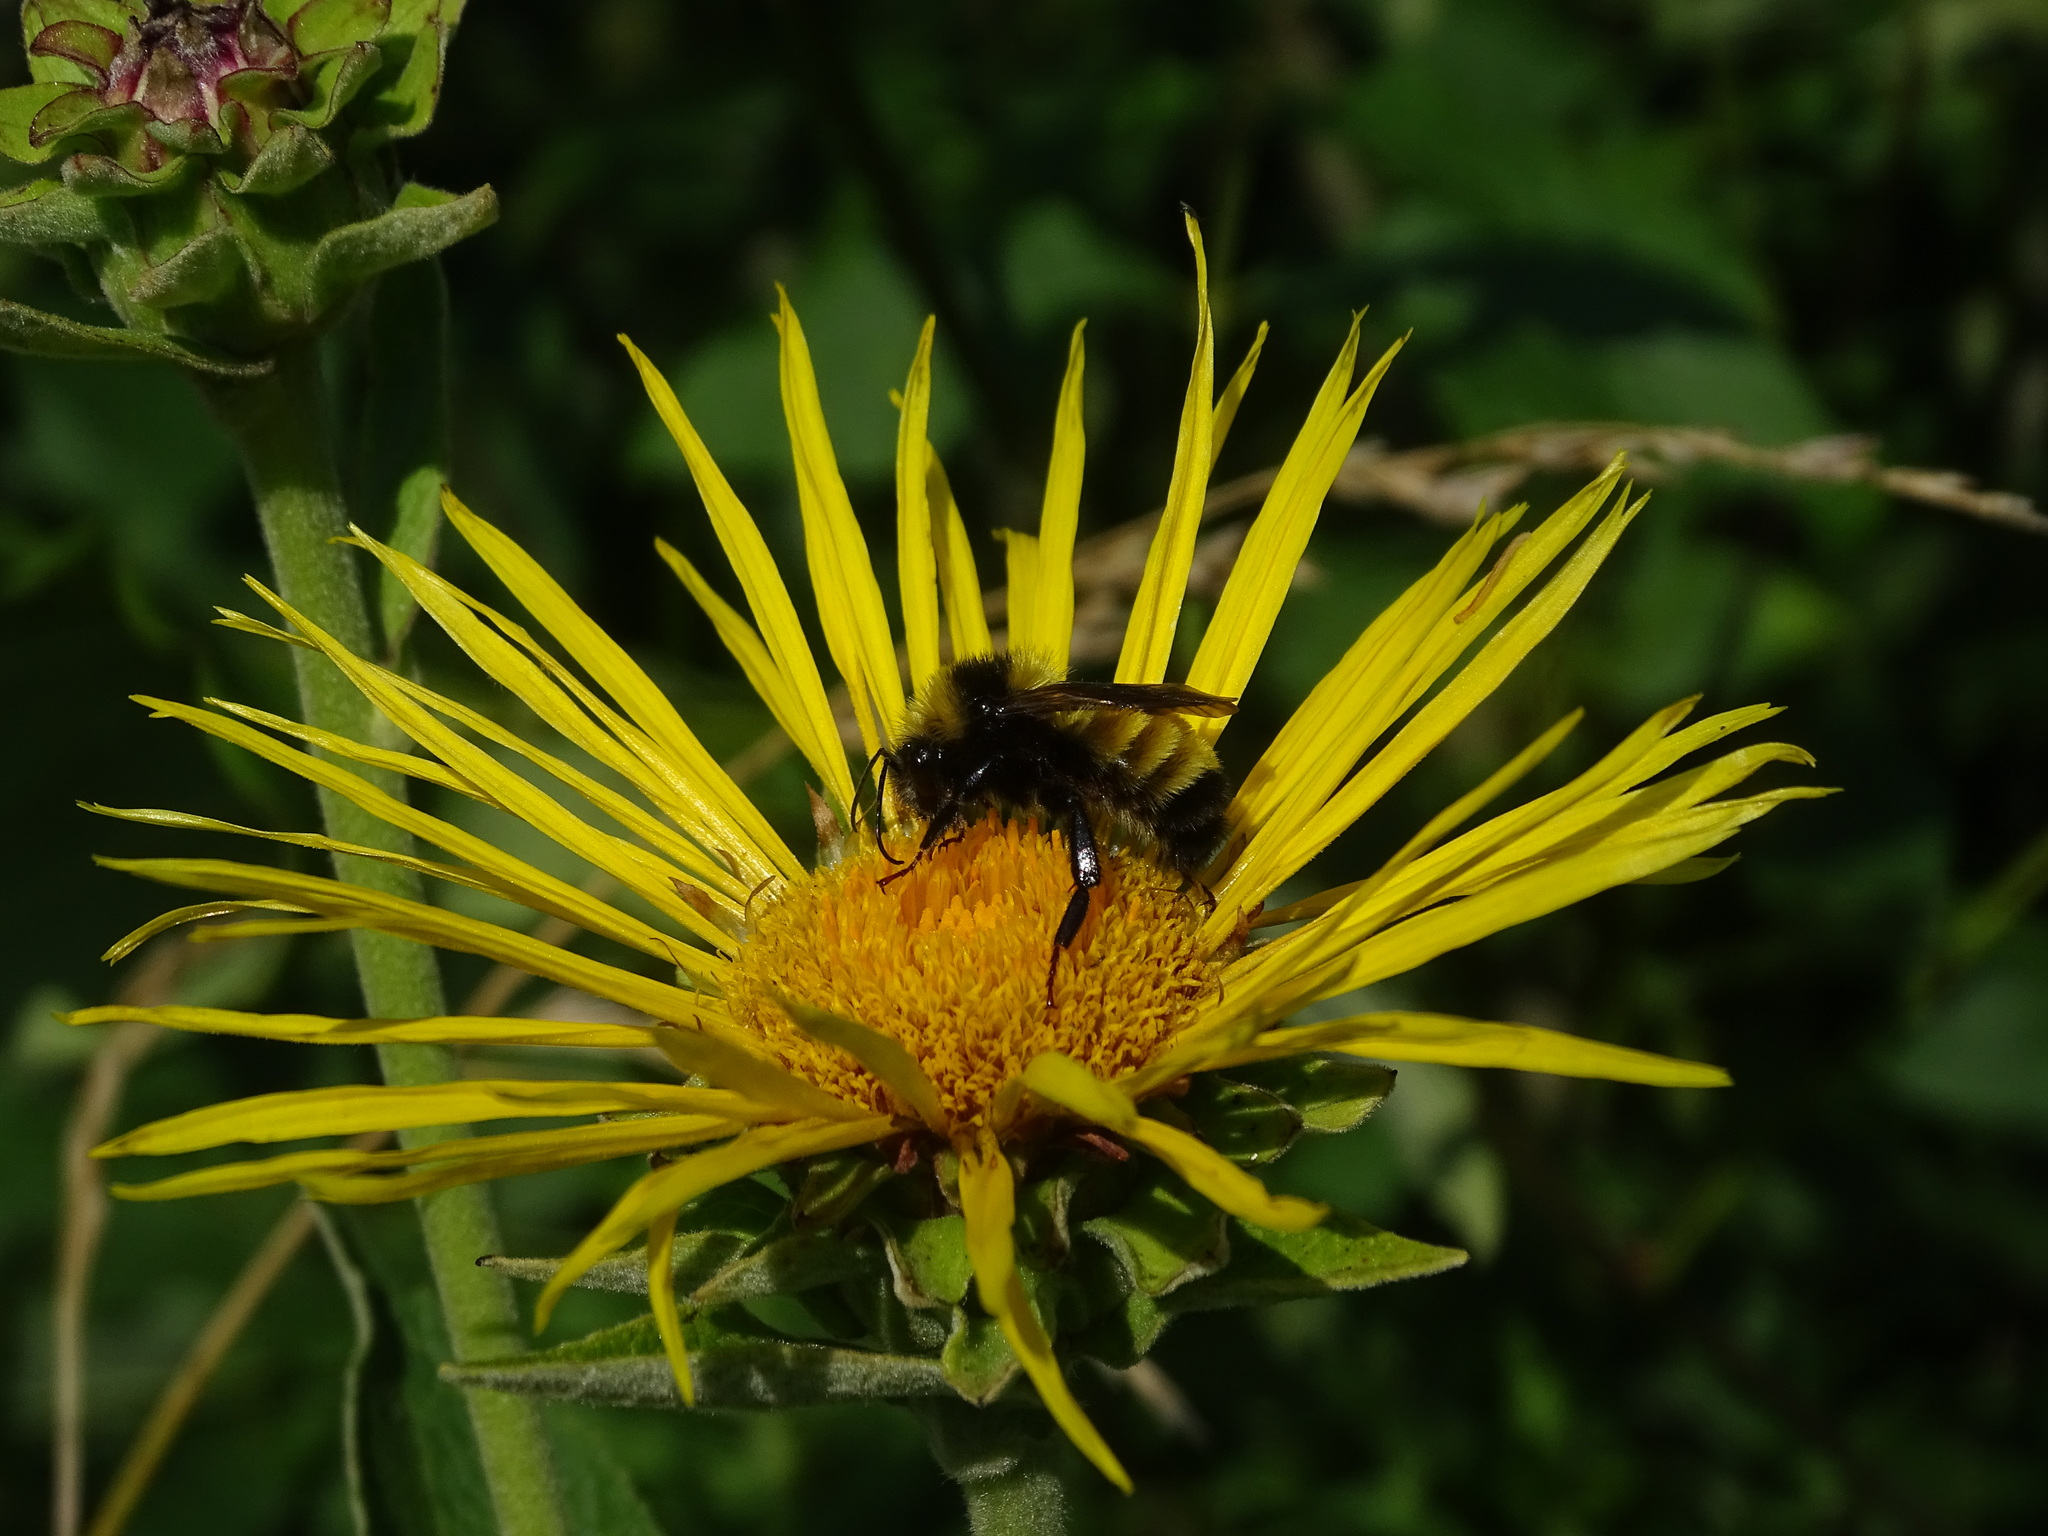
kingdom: Animalia
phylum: Arthropoda
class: Insecta
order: Hymenoptera
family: Apidae
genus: Bombus
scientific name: Bombus borealis
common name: Northern amber bumble bee
